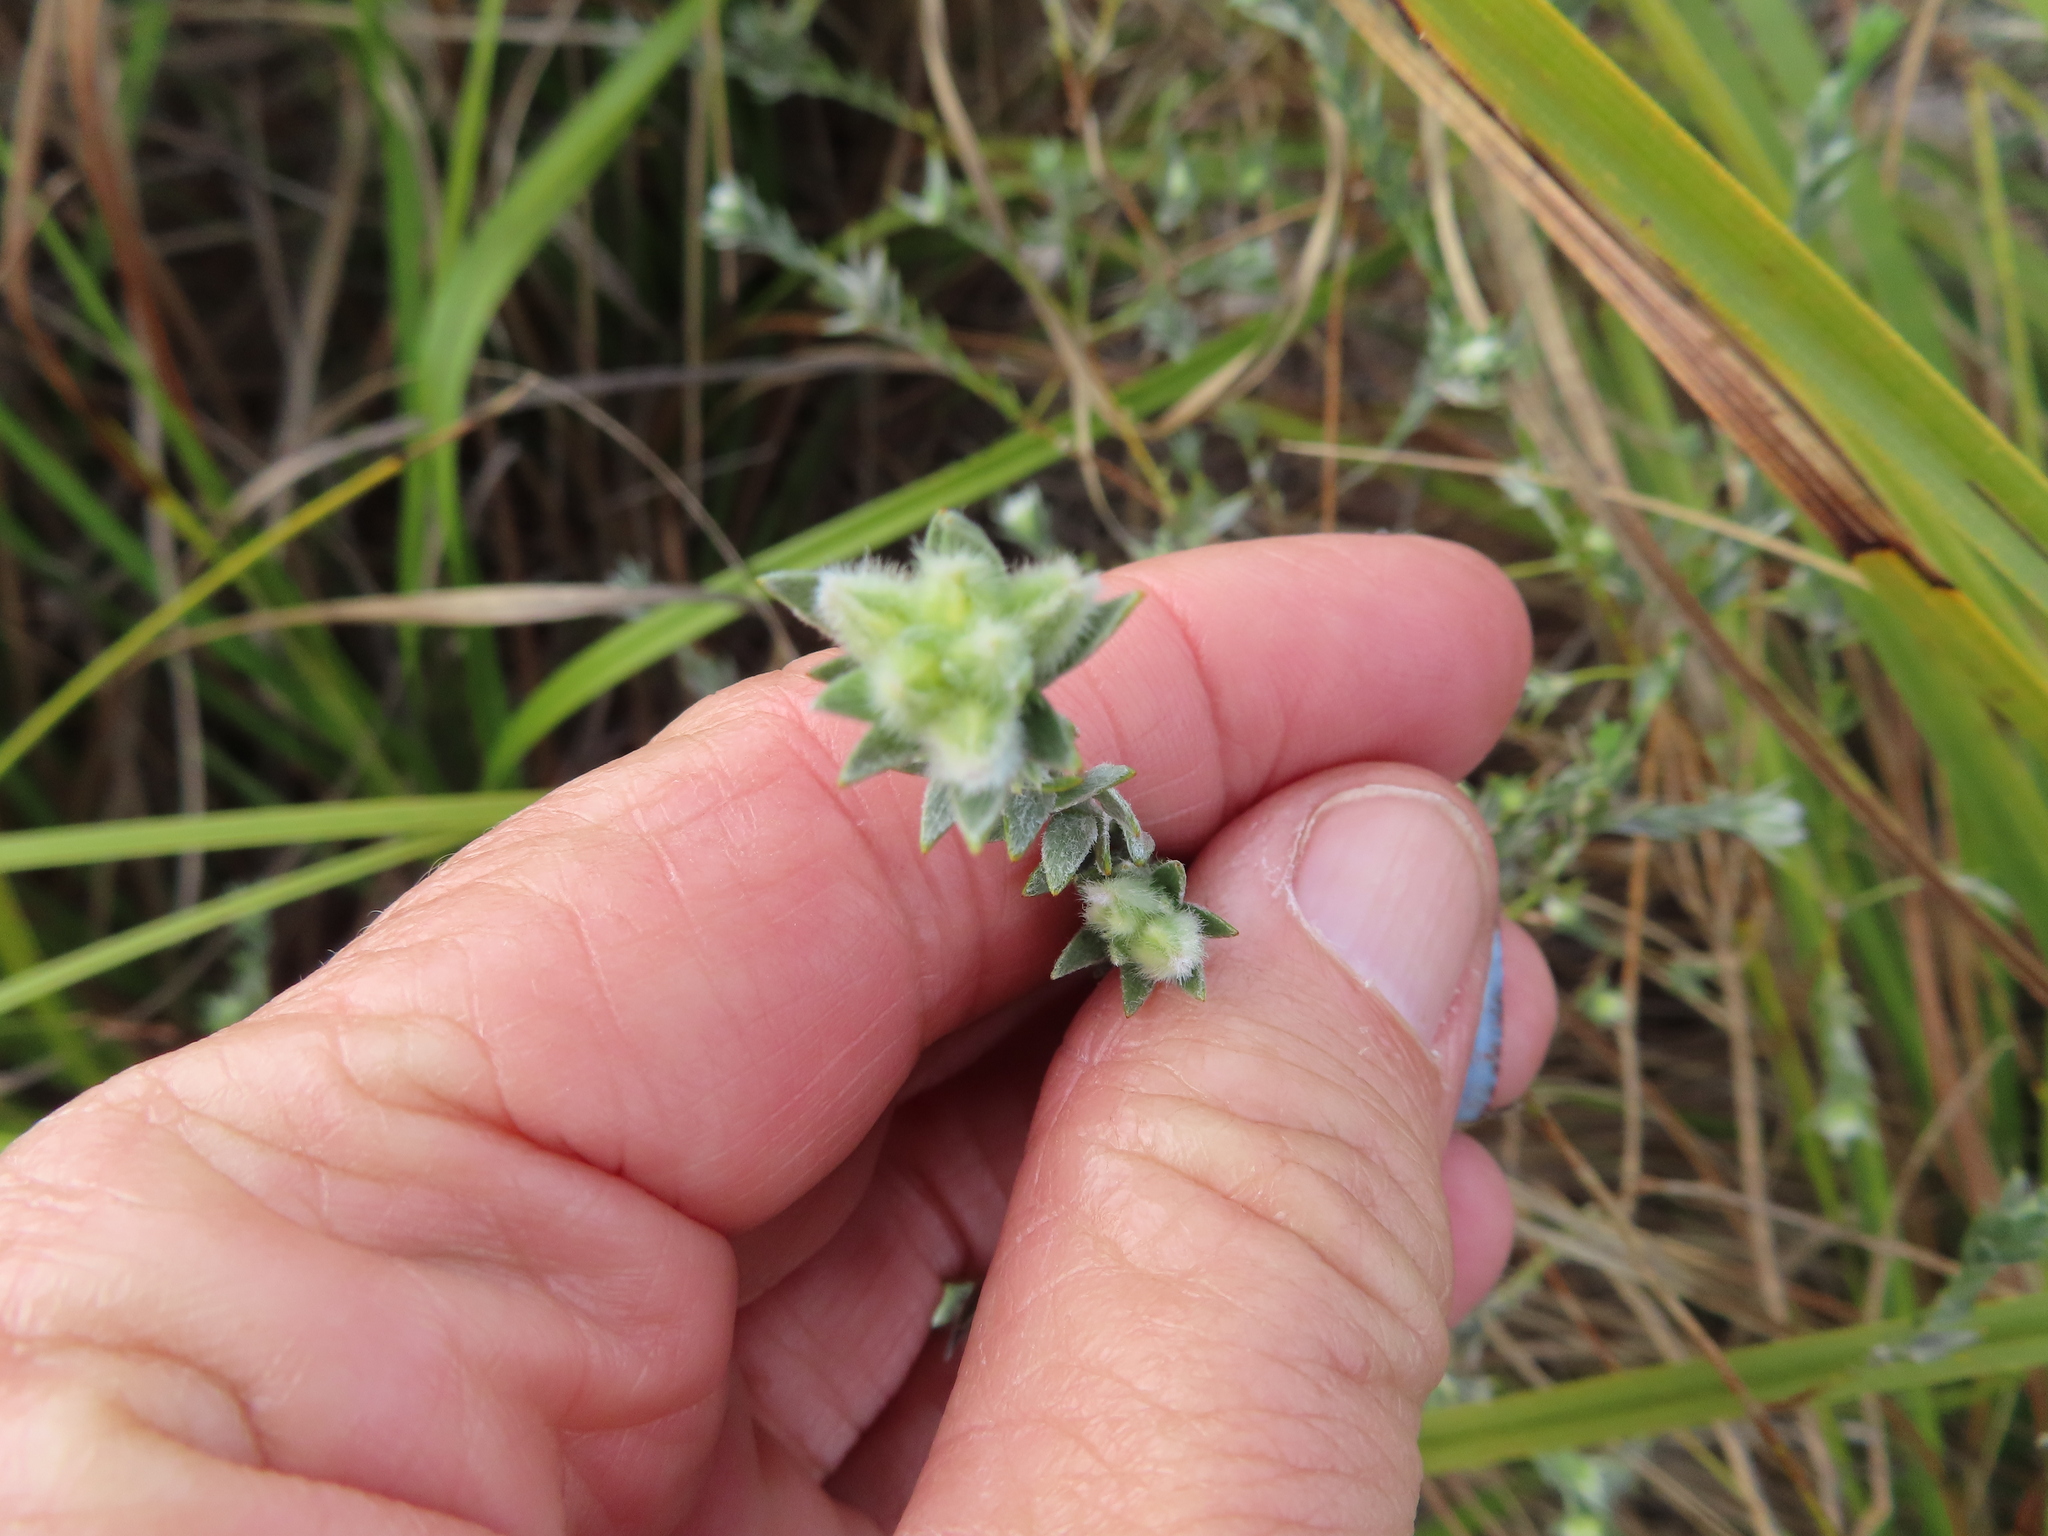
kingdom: Plantae
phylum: Tracheophyta
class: Magnoliopsida
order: Fabales
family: Fabaceae
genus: Amphithalea
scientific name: Amphithalea tomentosa
